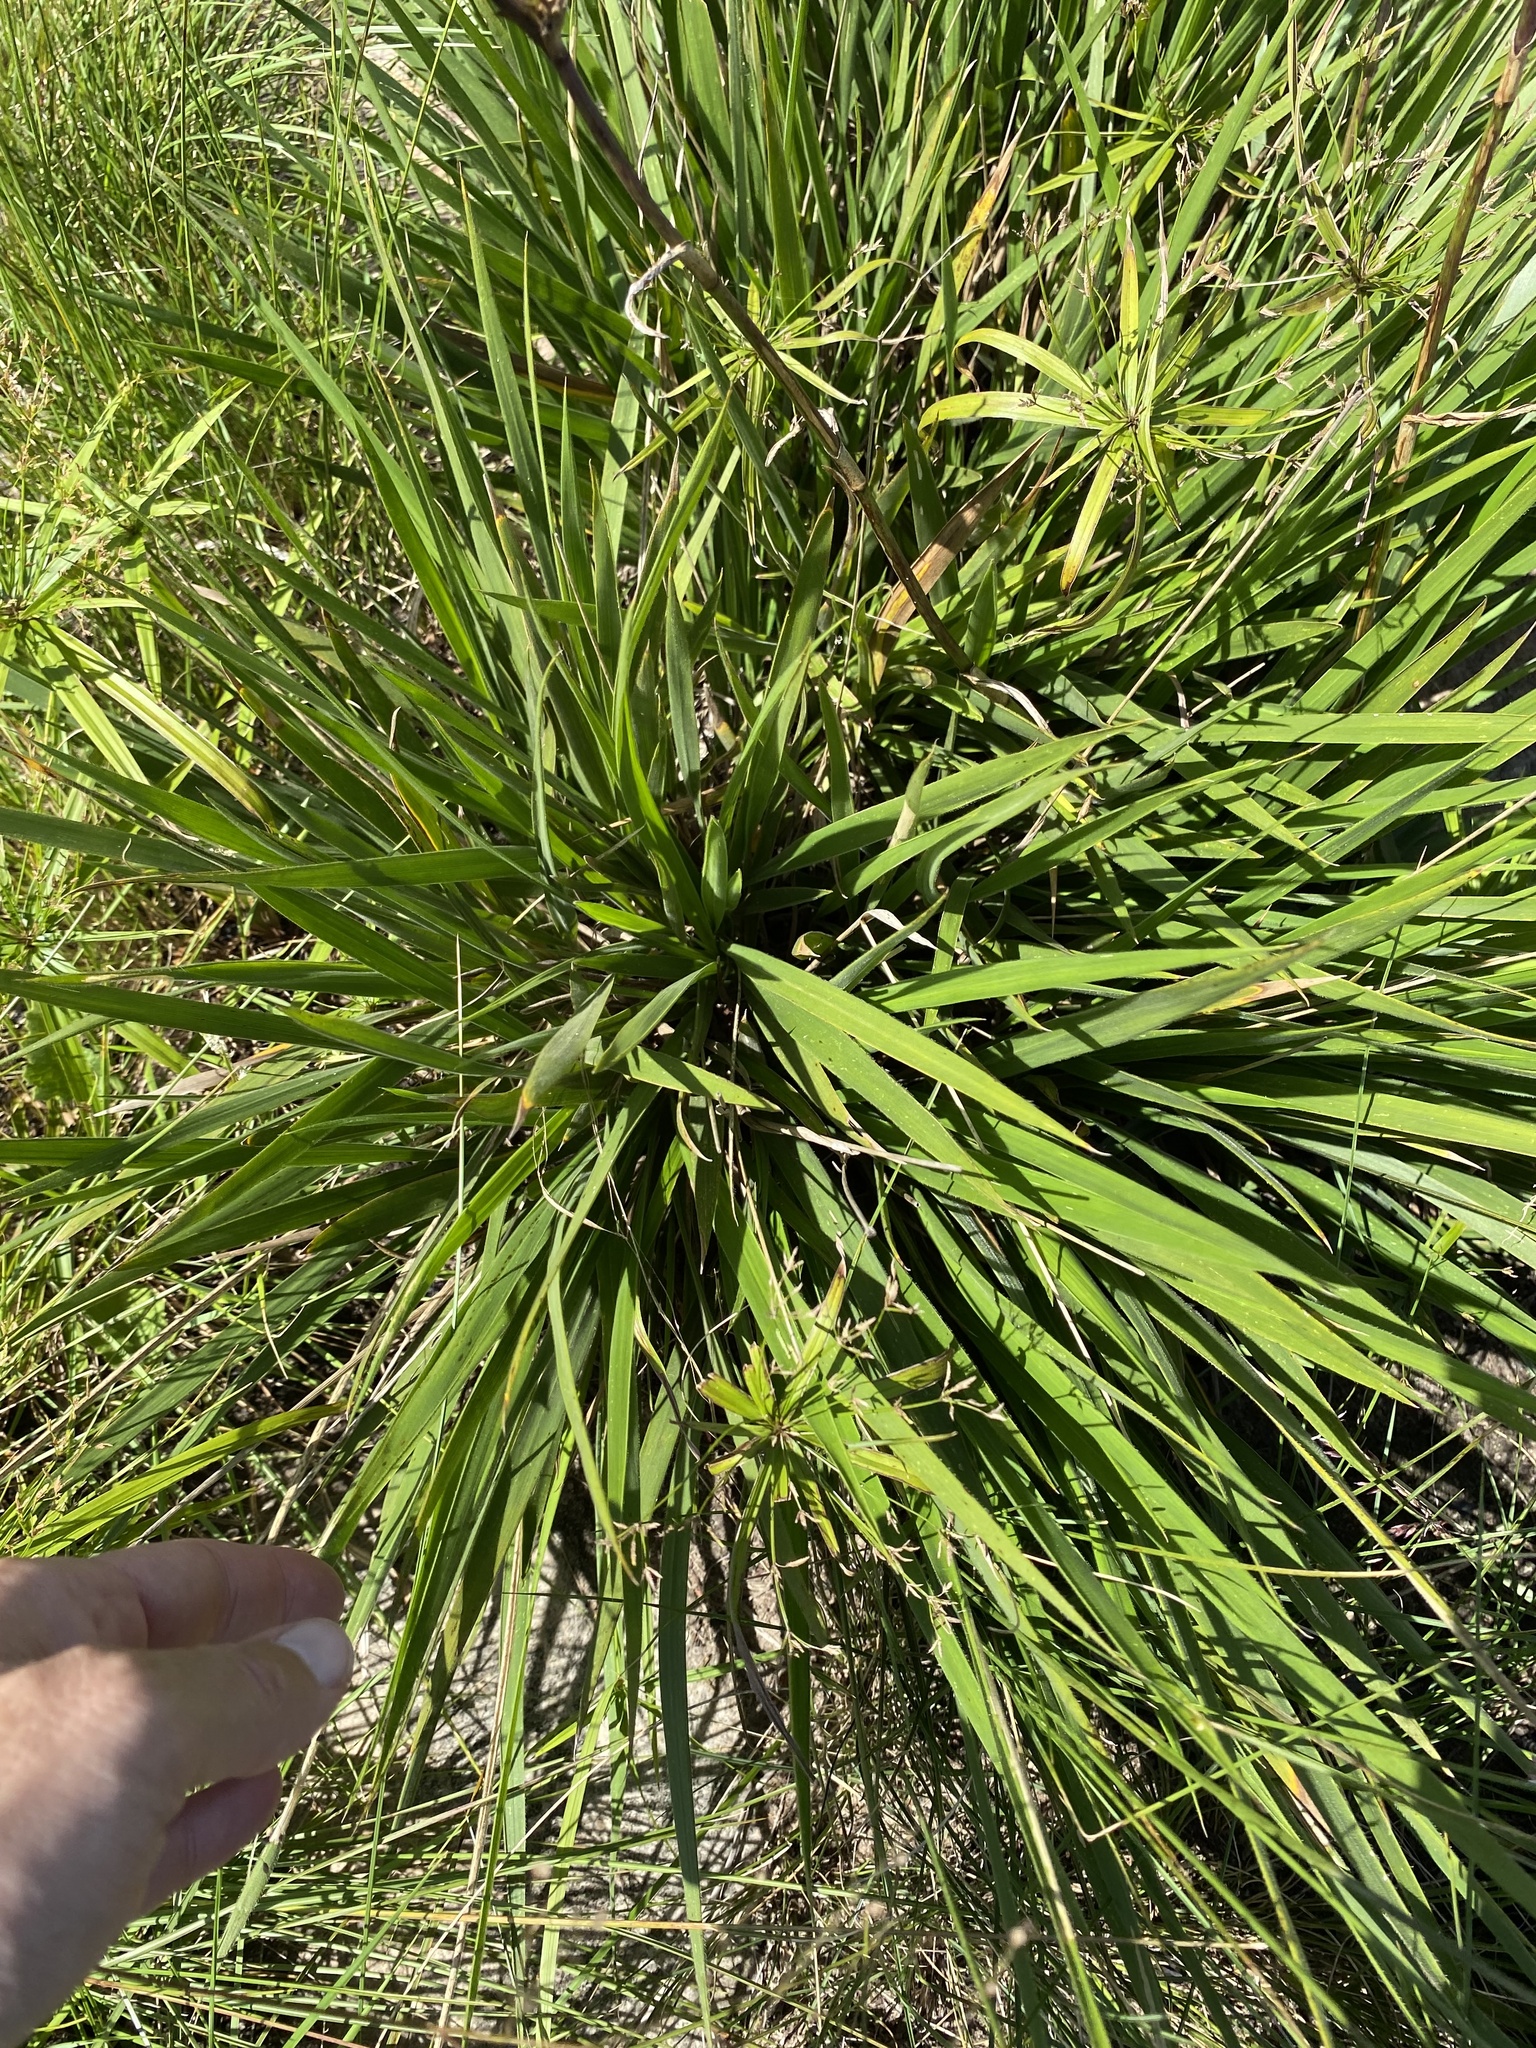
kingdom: Plantae
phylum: Tracheophyta
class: Liliopsida
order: Poales
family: Poaceae
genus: Alloteropsis
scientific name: Alloteropsis semialata
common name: Cockatoo grass
